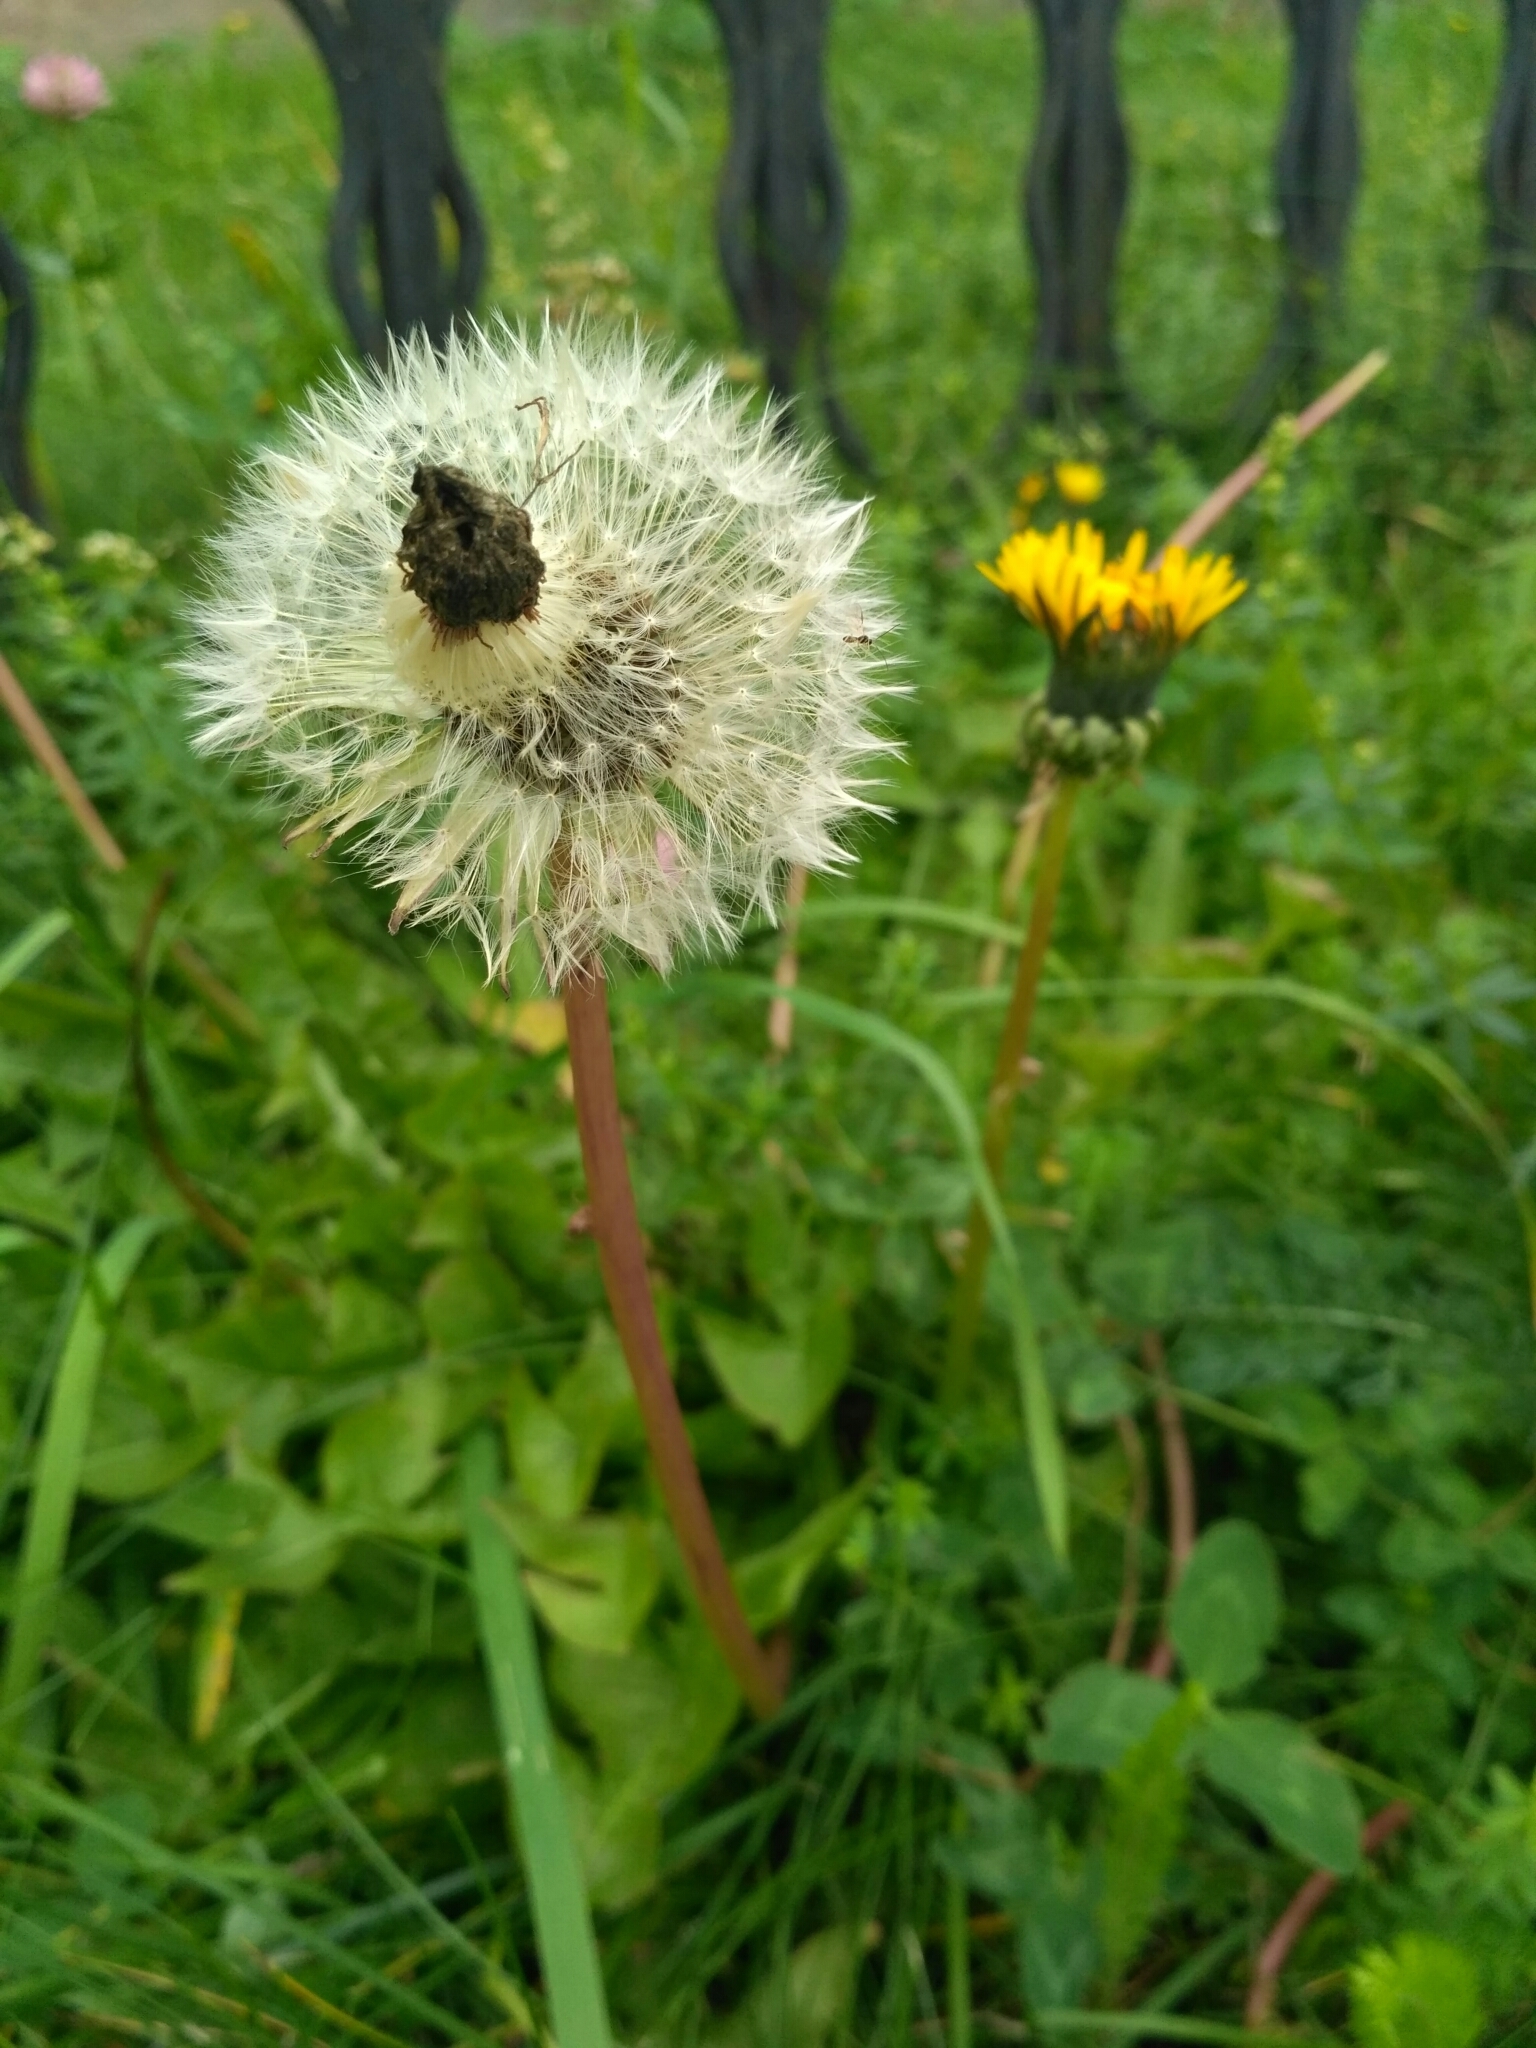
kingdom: Plantae
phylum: Tracheophyta
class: Magnoliopsida
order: Asterales
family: Asteraceae
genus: Taraxacum
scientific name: Taraxacum officinale
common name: Common dandelion
